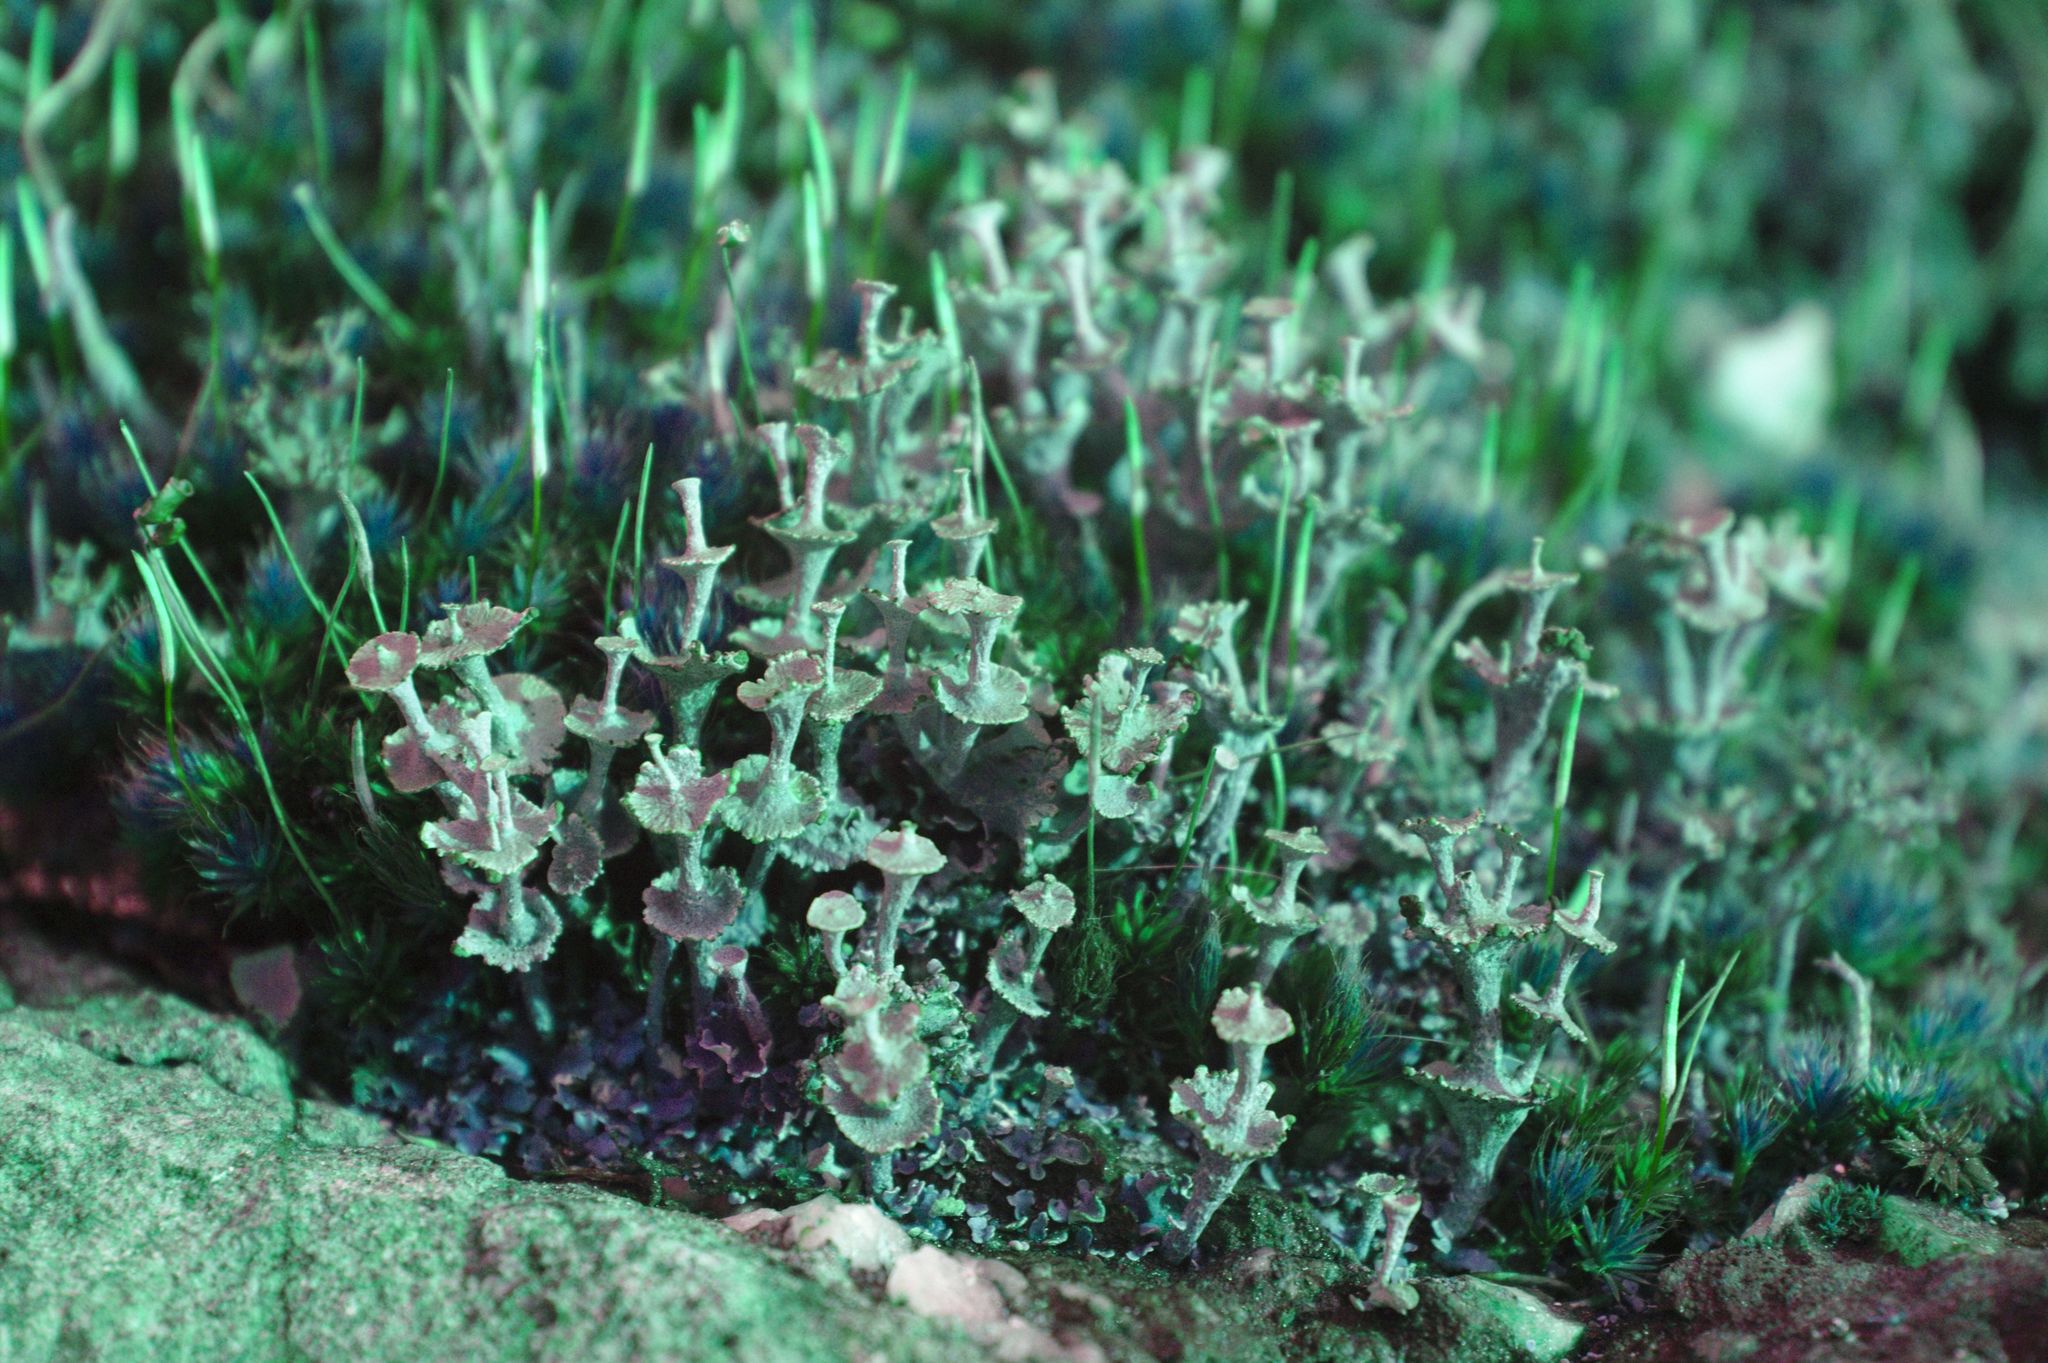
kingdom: Fungi
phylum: Ascomycota
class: Lecanoromycetes
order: Lecanorales
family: Cladoniaceae
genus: Cladonia
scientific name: Cladonia cervicornis
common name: Browned pixie-cup lichen
